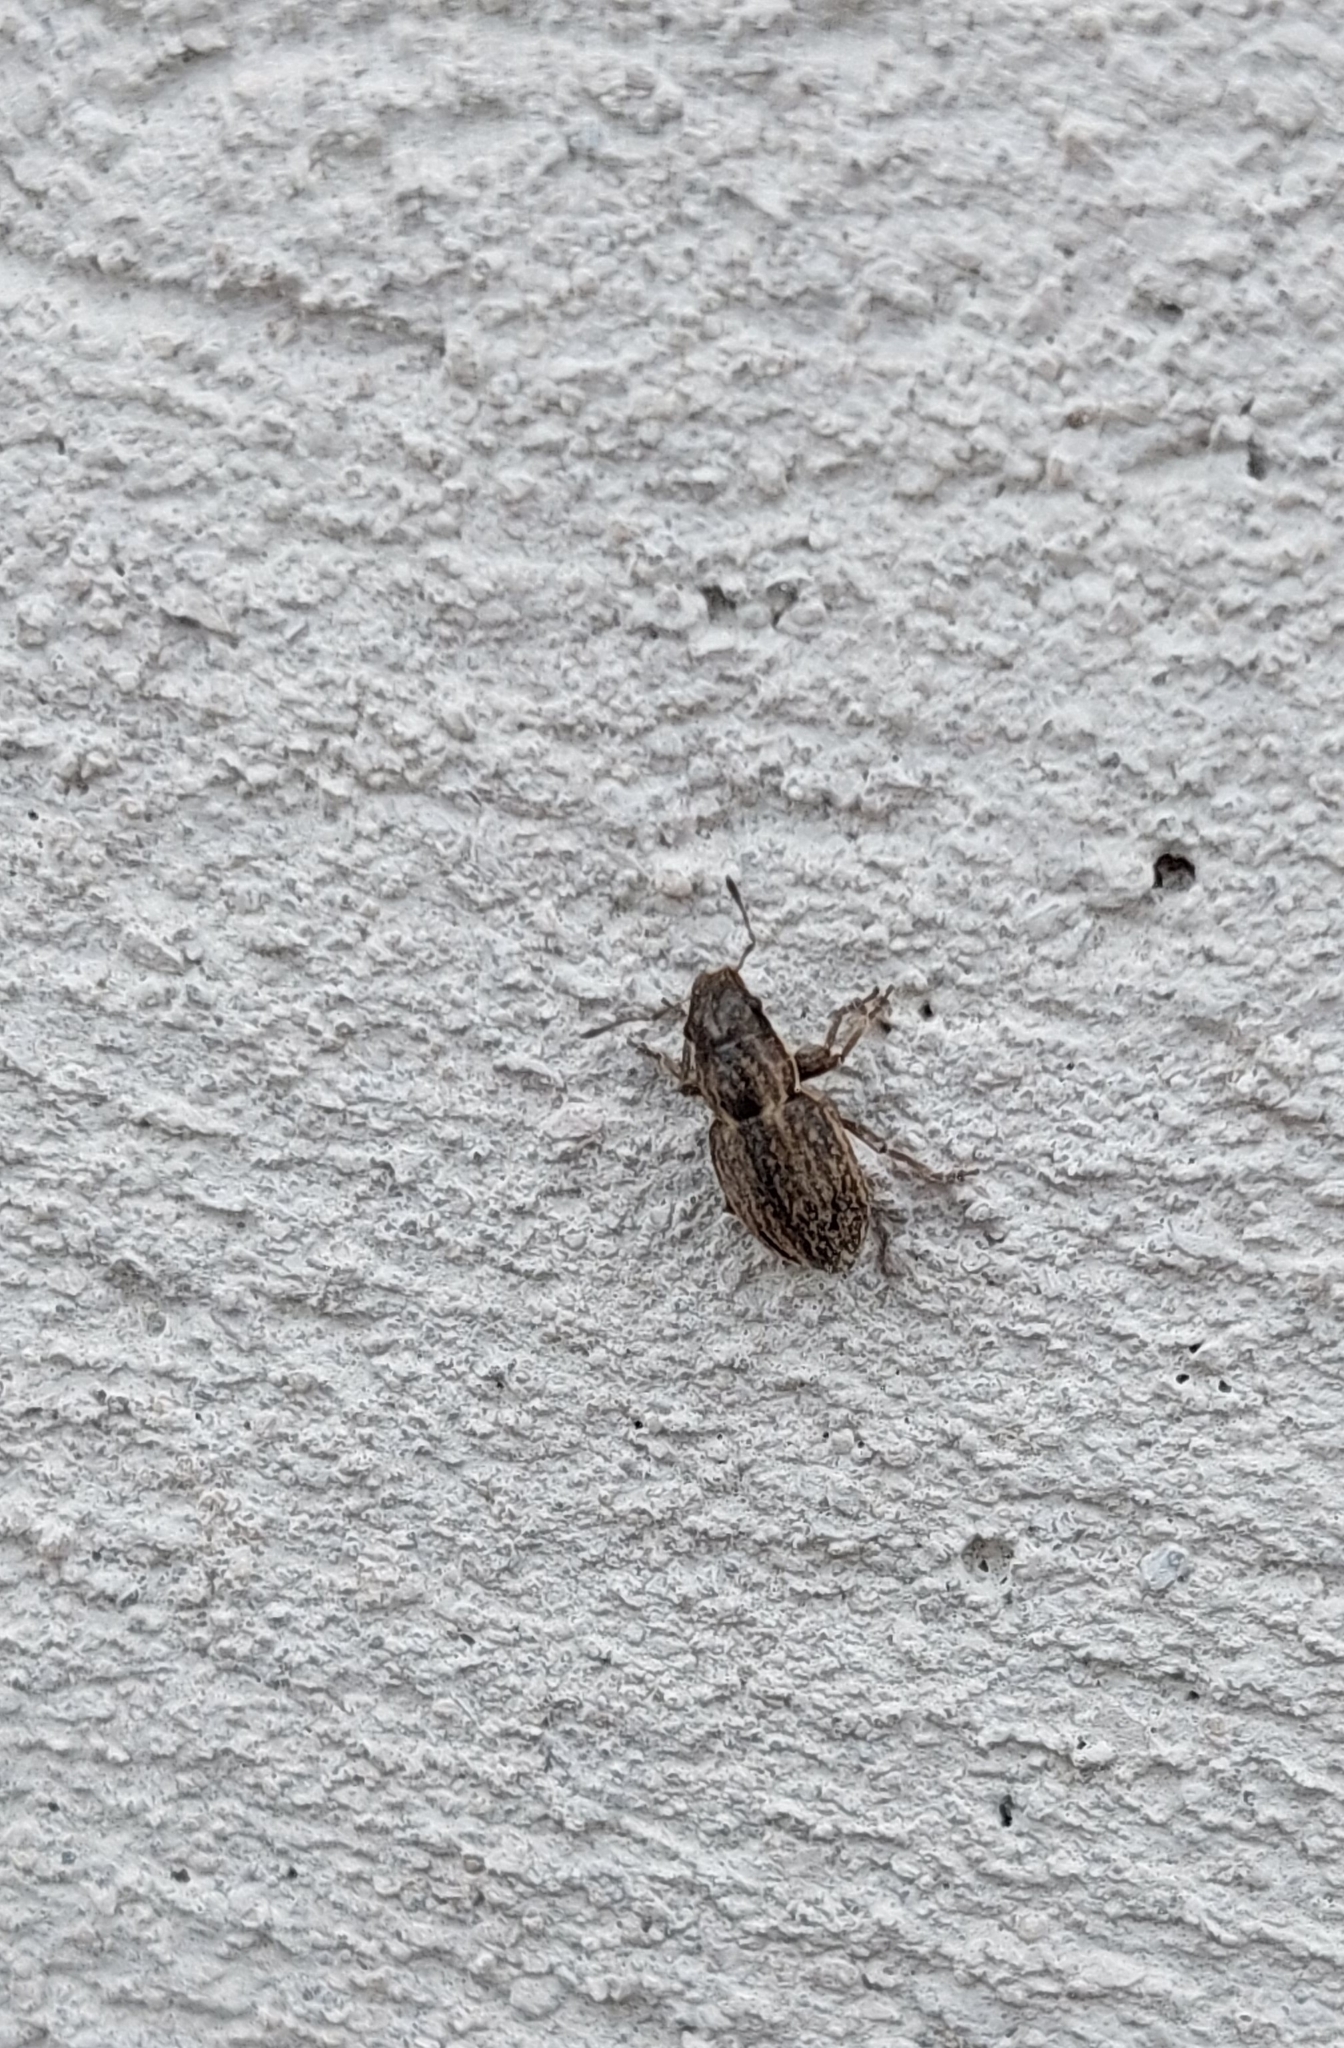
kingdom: Animalia
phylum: Arthropoda
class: Insecta
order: Coleoptera
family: Curculionidae
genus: Naupactus
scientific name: Naupactus leucoloma
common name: Whitefringed beetle
